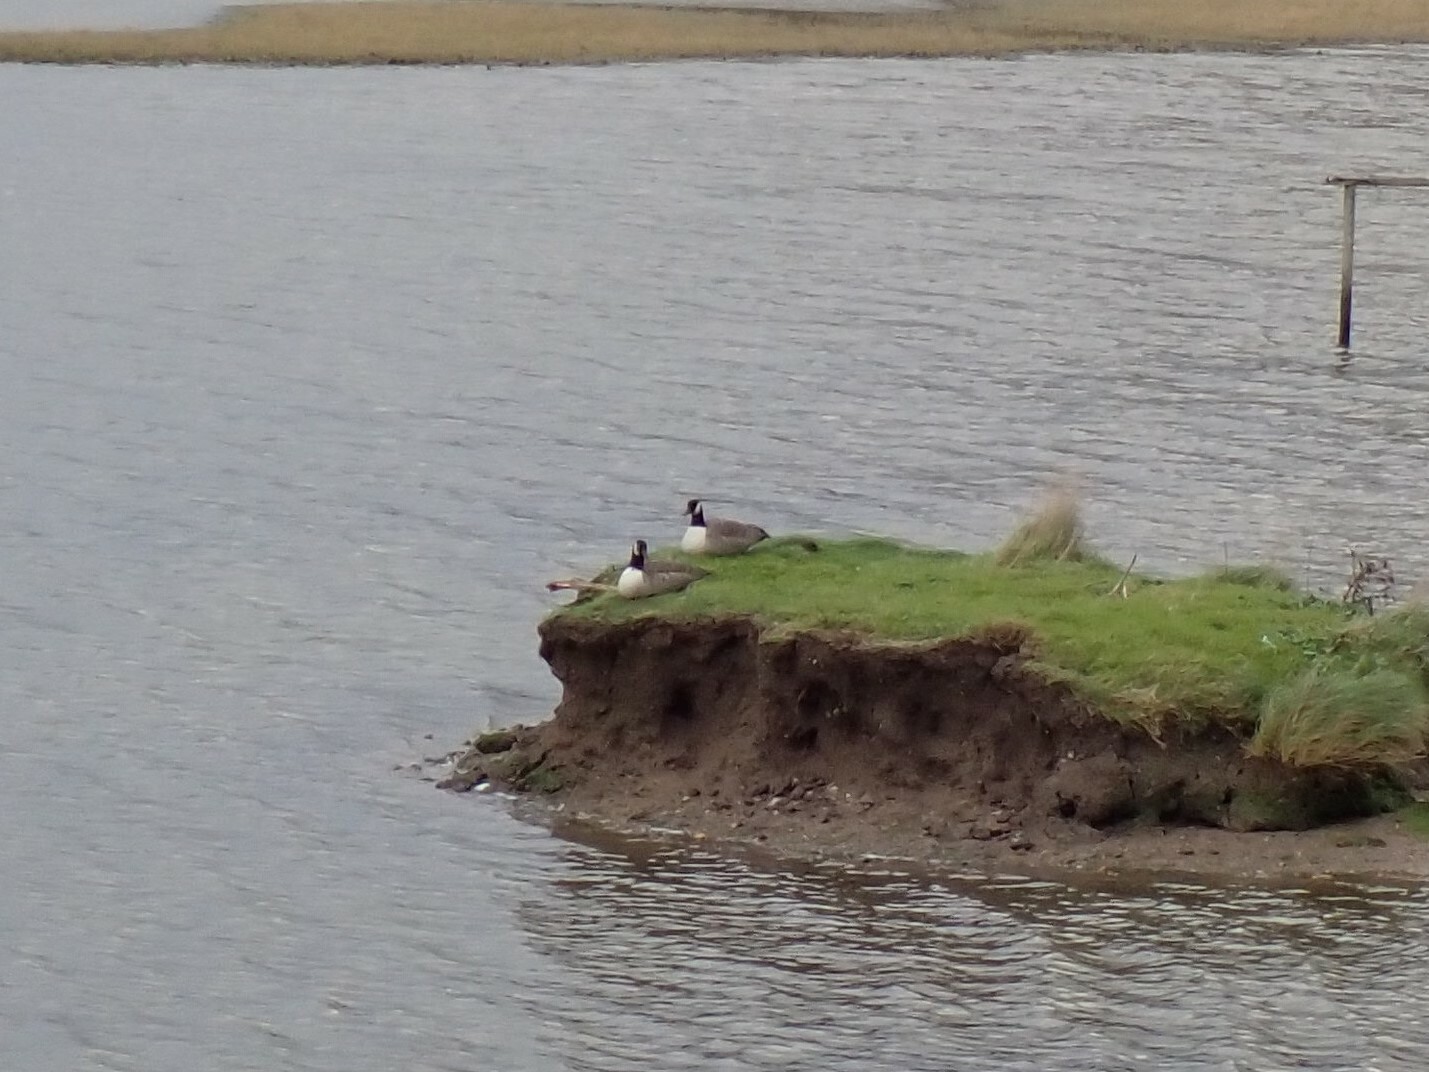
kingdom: Animalia
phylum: Chordata
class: Aves
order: Anseriformes
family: Anatidae
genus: Branta
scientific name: Branta canadensis
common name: Canada goose
